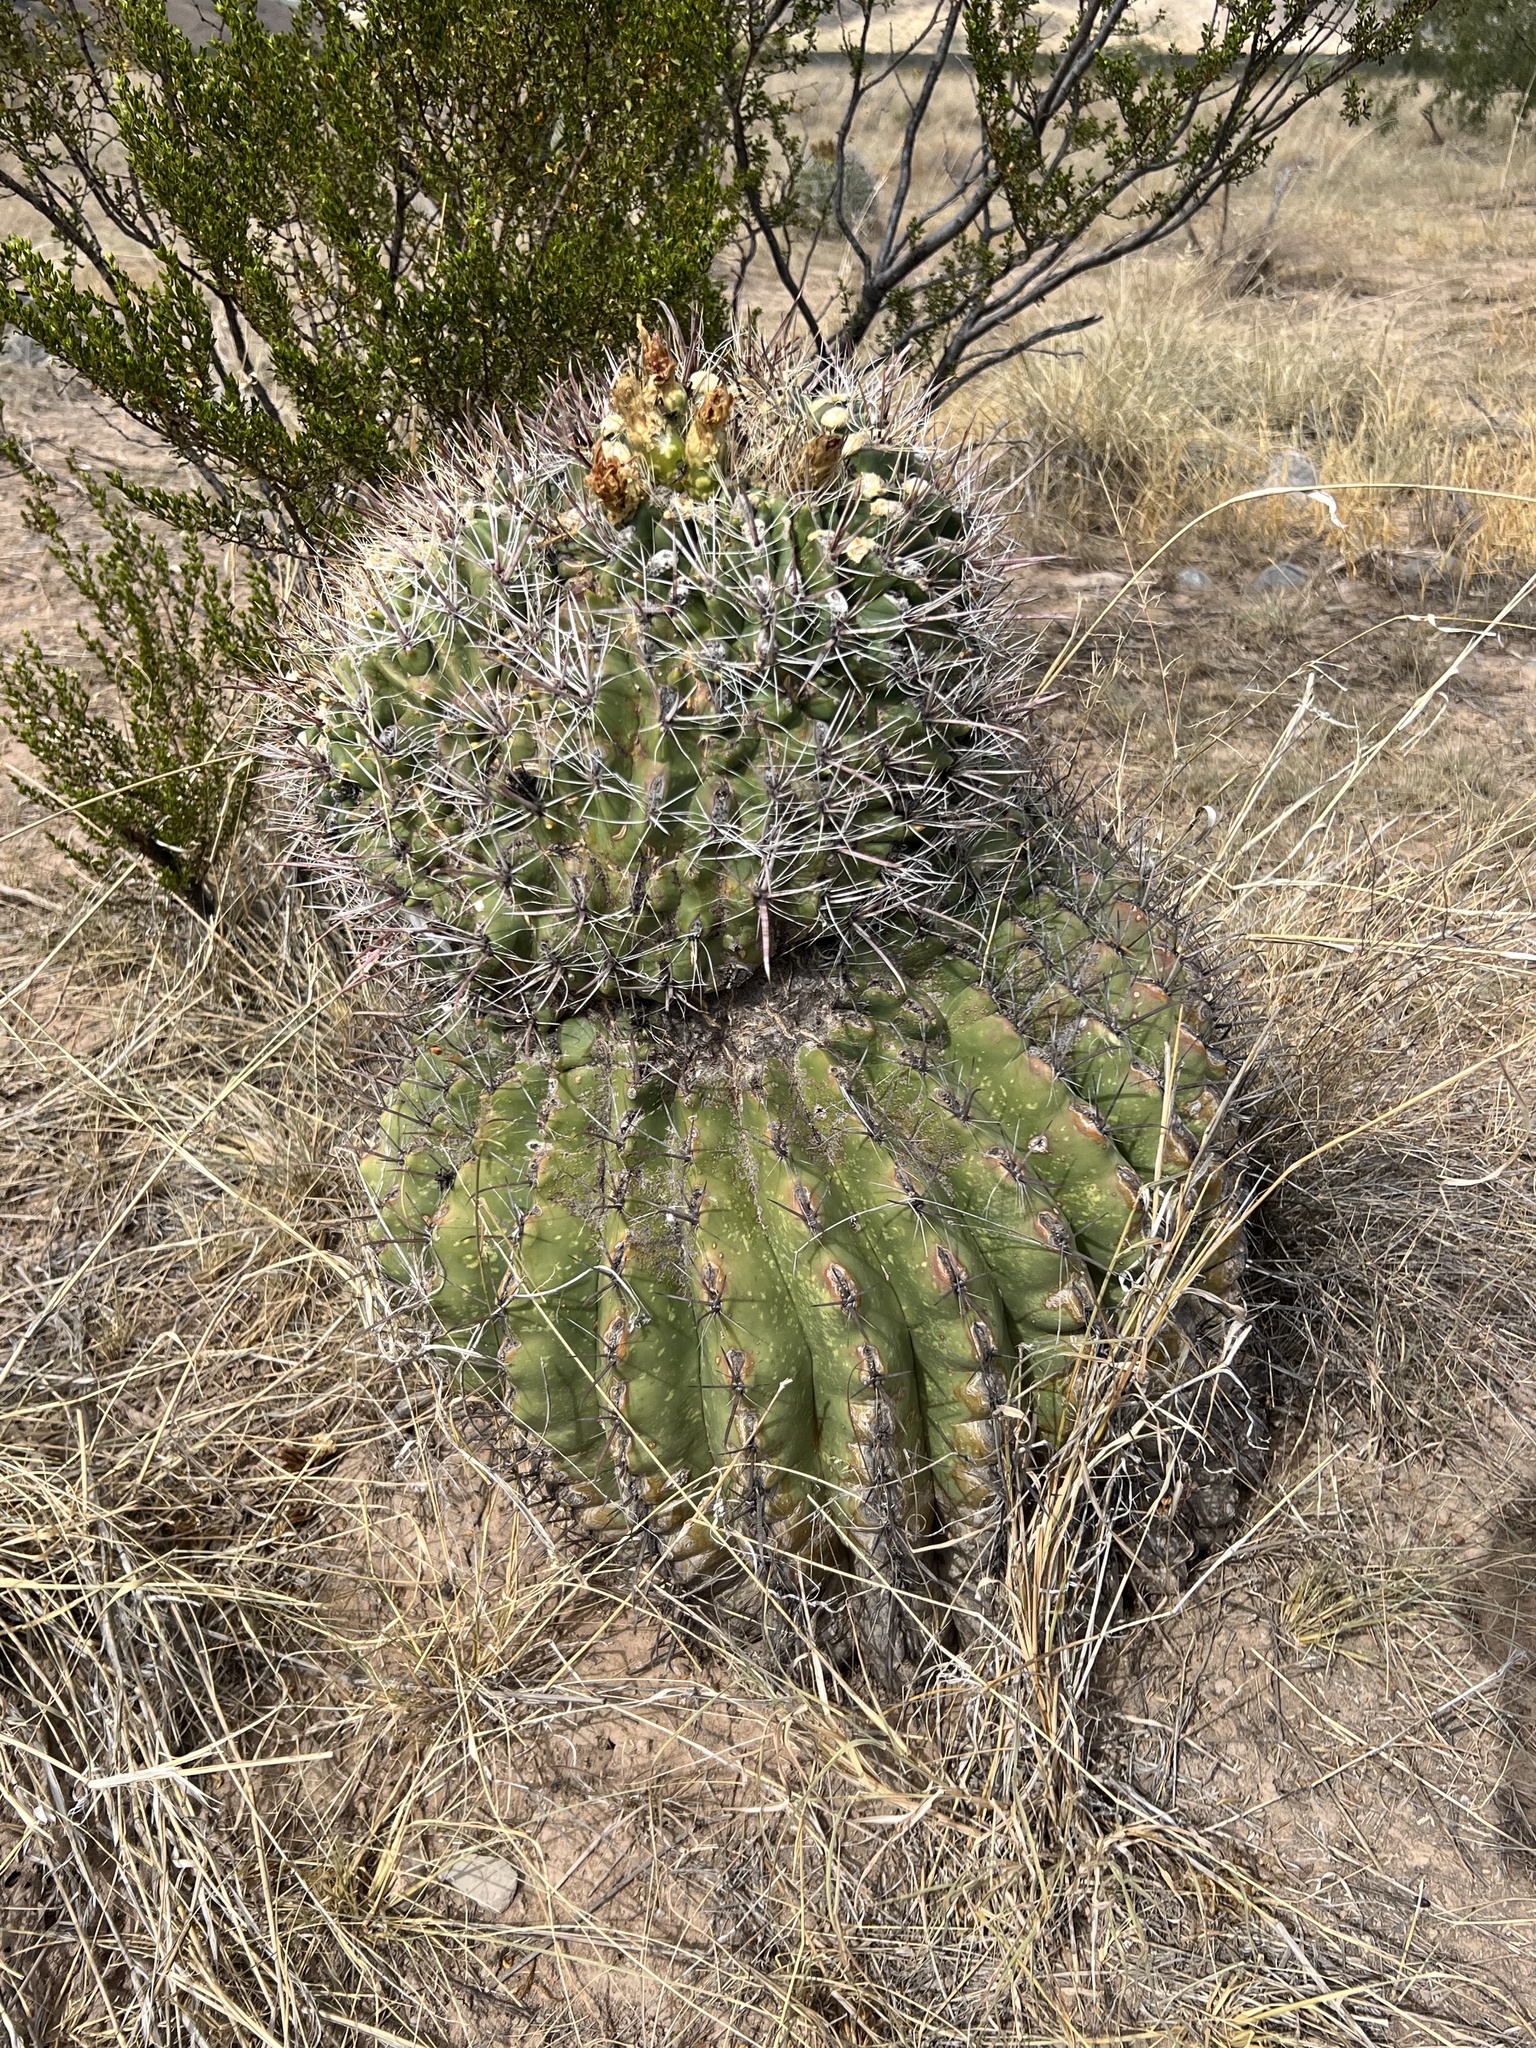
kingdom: Plantae
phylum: Tracheophyta
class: Magnoliopsida
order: Caryophyllales
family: Cactaceae
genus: Ferocactus
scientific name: Ferocactus wislizeni
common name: Candy barrel cactus
